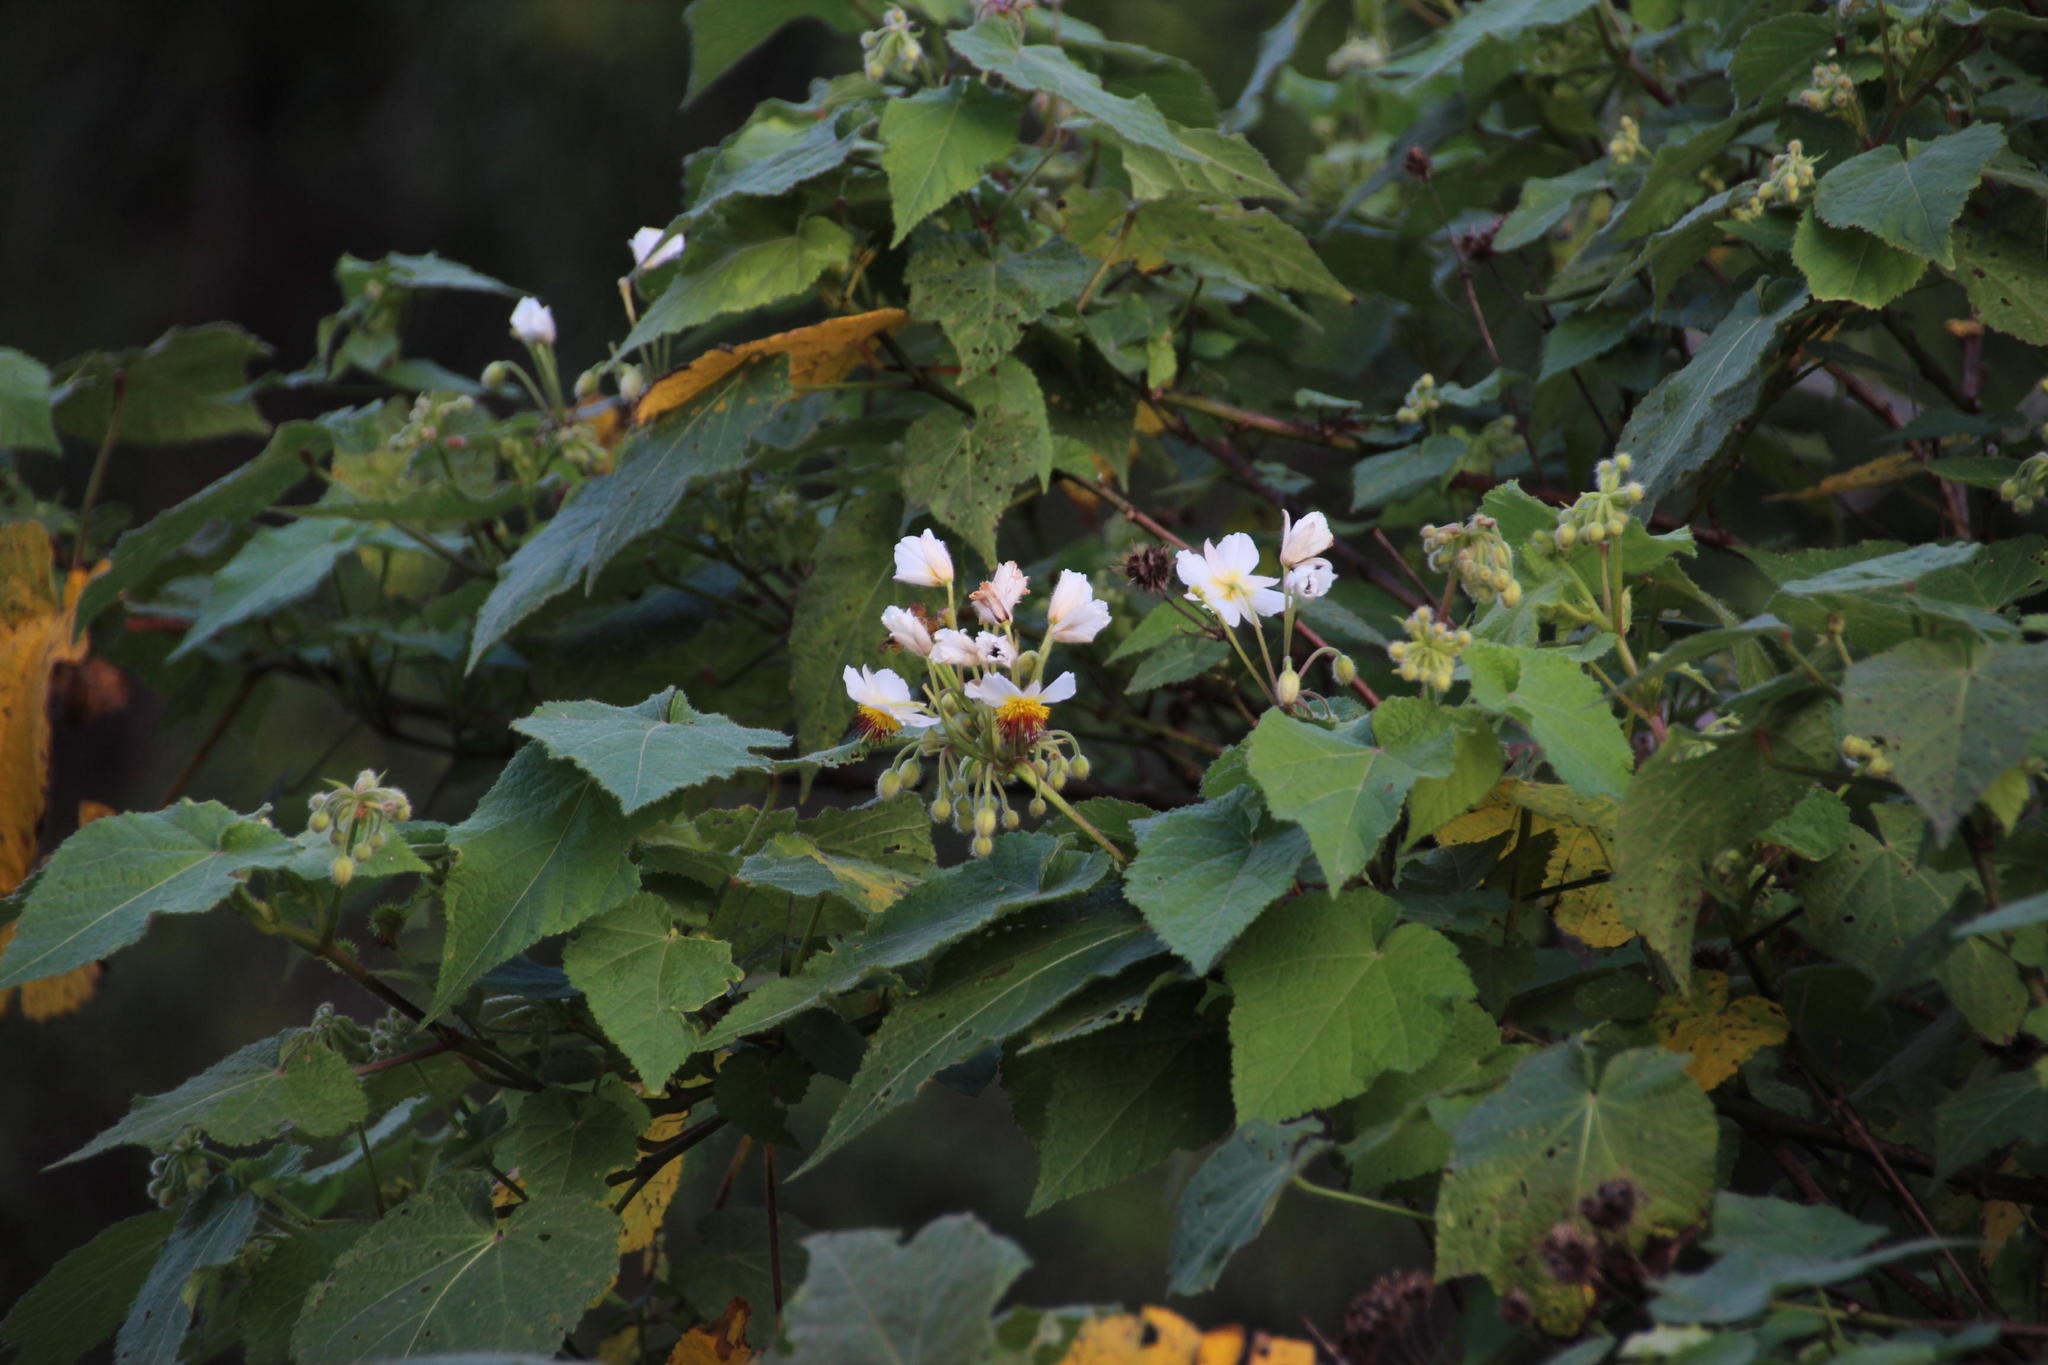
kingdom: Plantae
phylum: Tracheophyta
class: Magnoliopsida
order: Malvales
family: Malvaceae
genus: Sparrmannia
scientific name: Sparrmannia africana
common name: African-hemp
